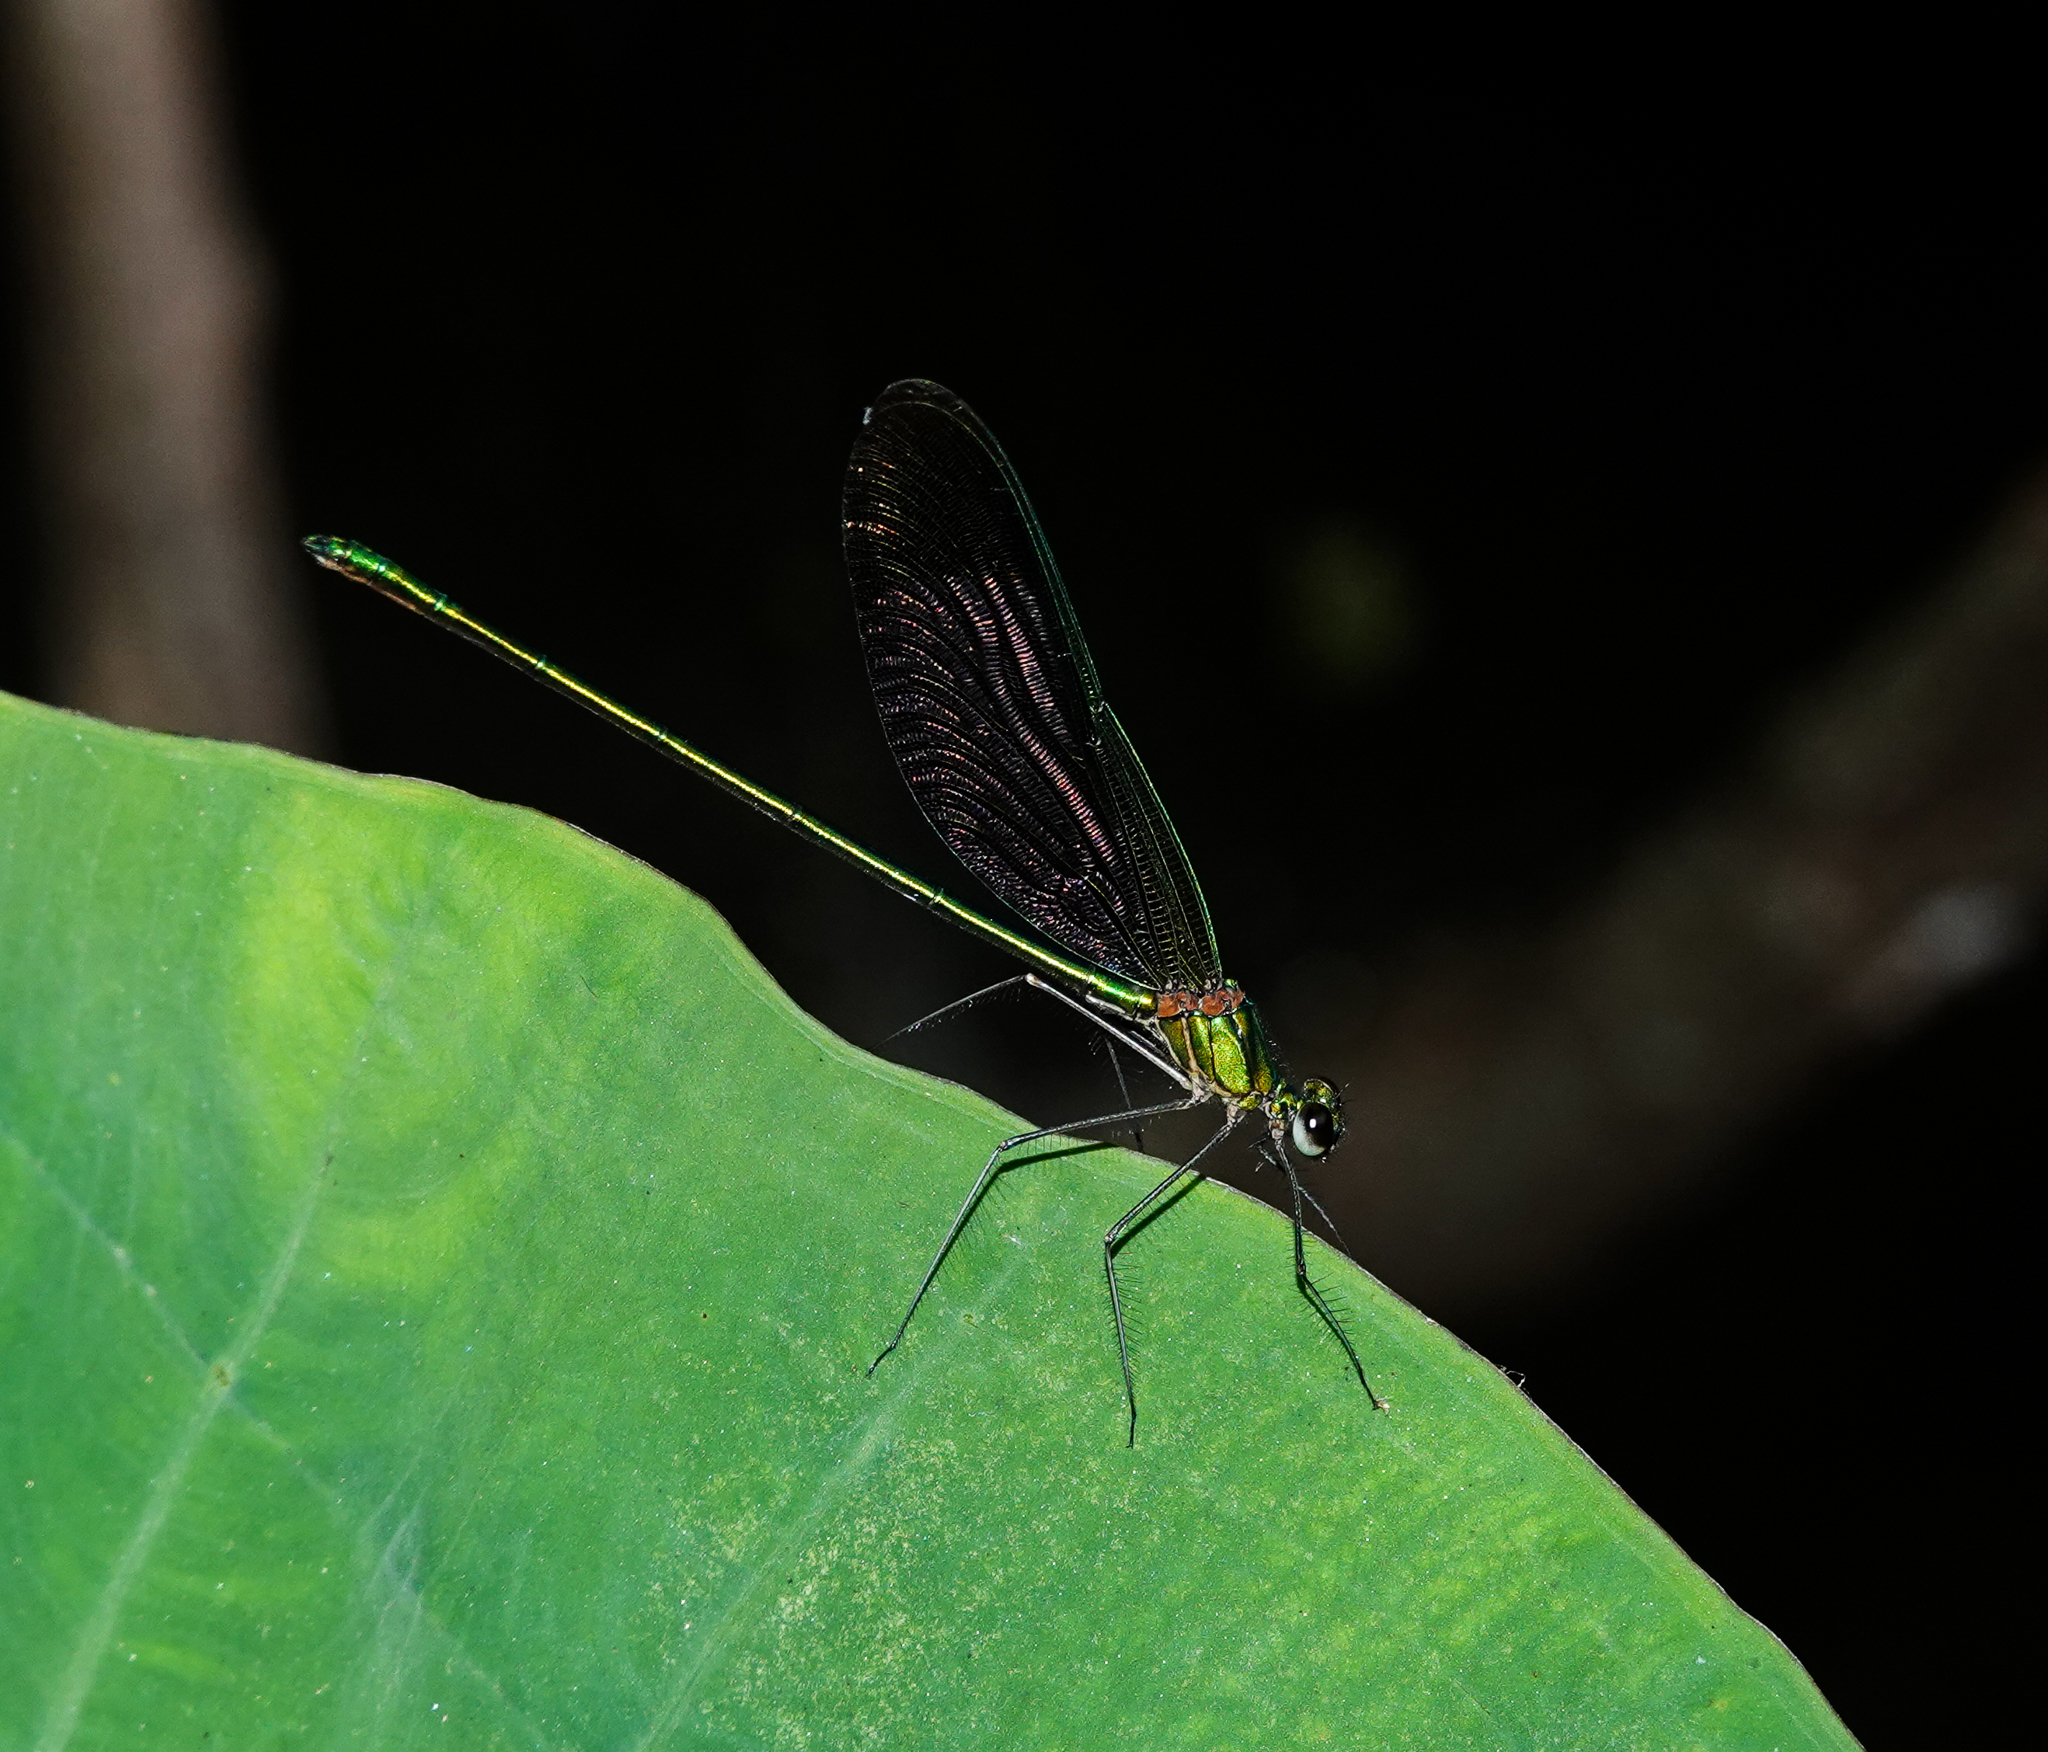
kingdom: Animalia
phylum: Arthropoda
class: Insecta
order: Odonata
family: Calopterygidae
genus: Neurobasis
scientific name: Neurobasis chinensis
